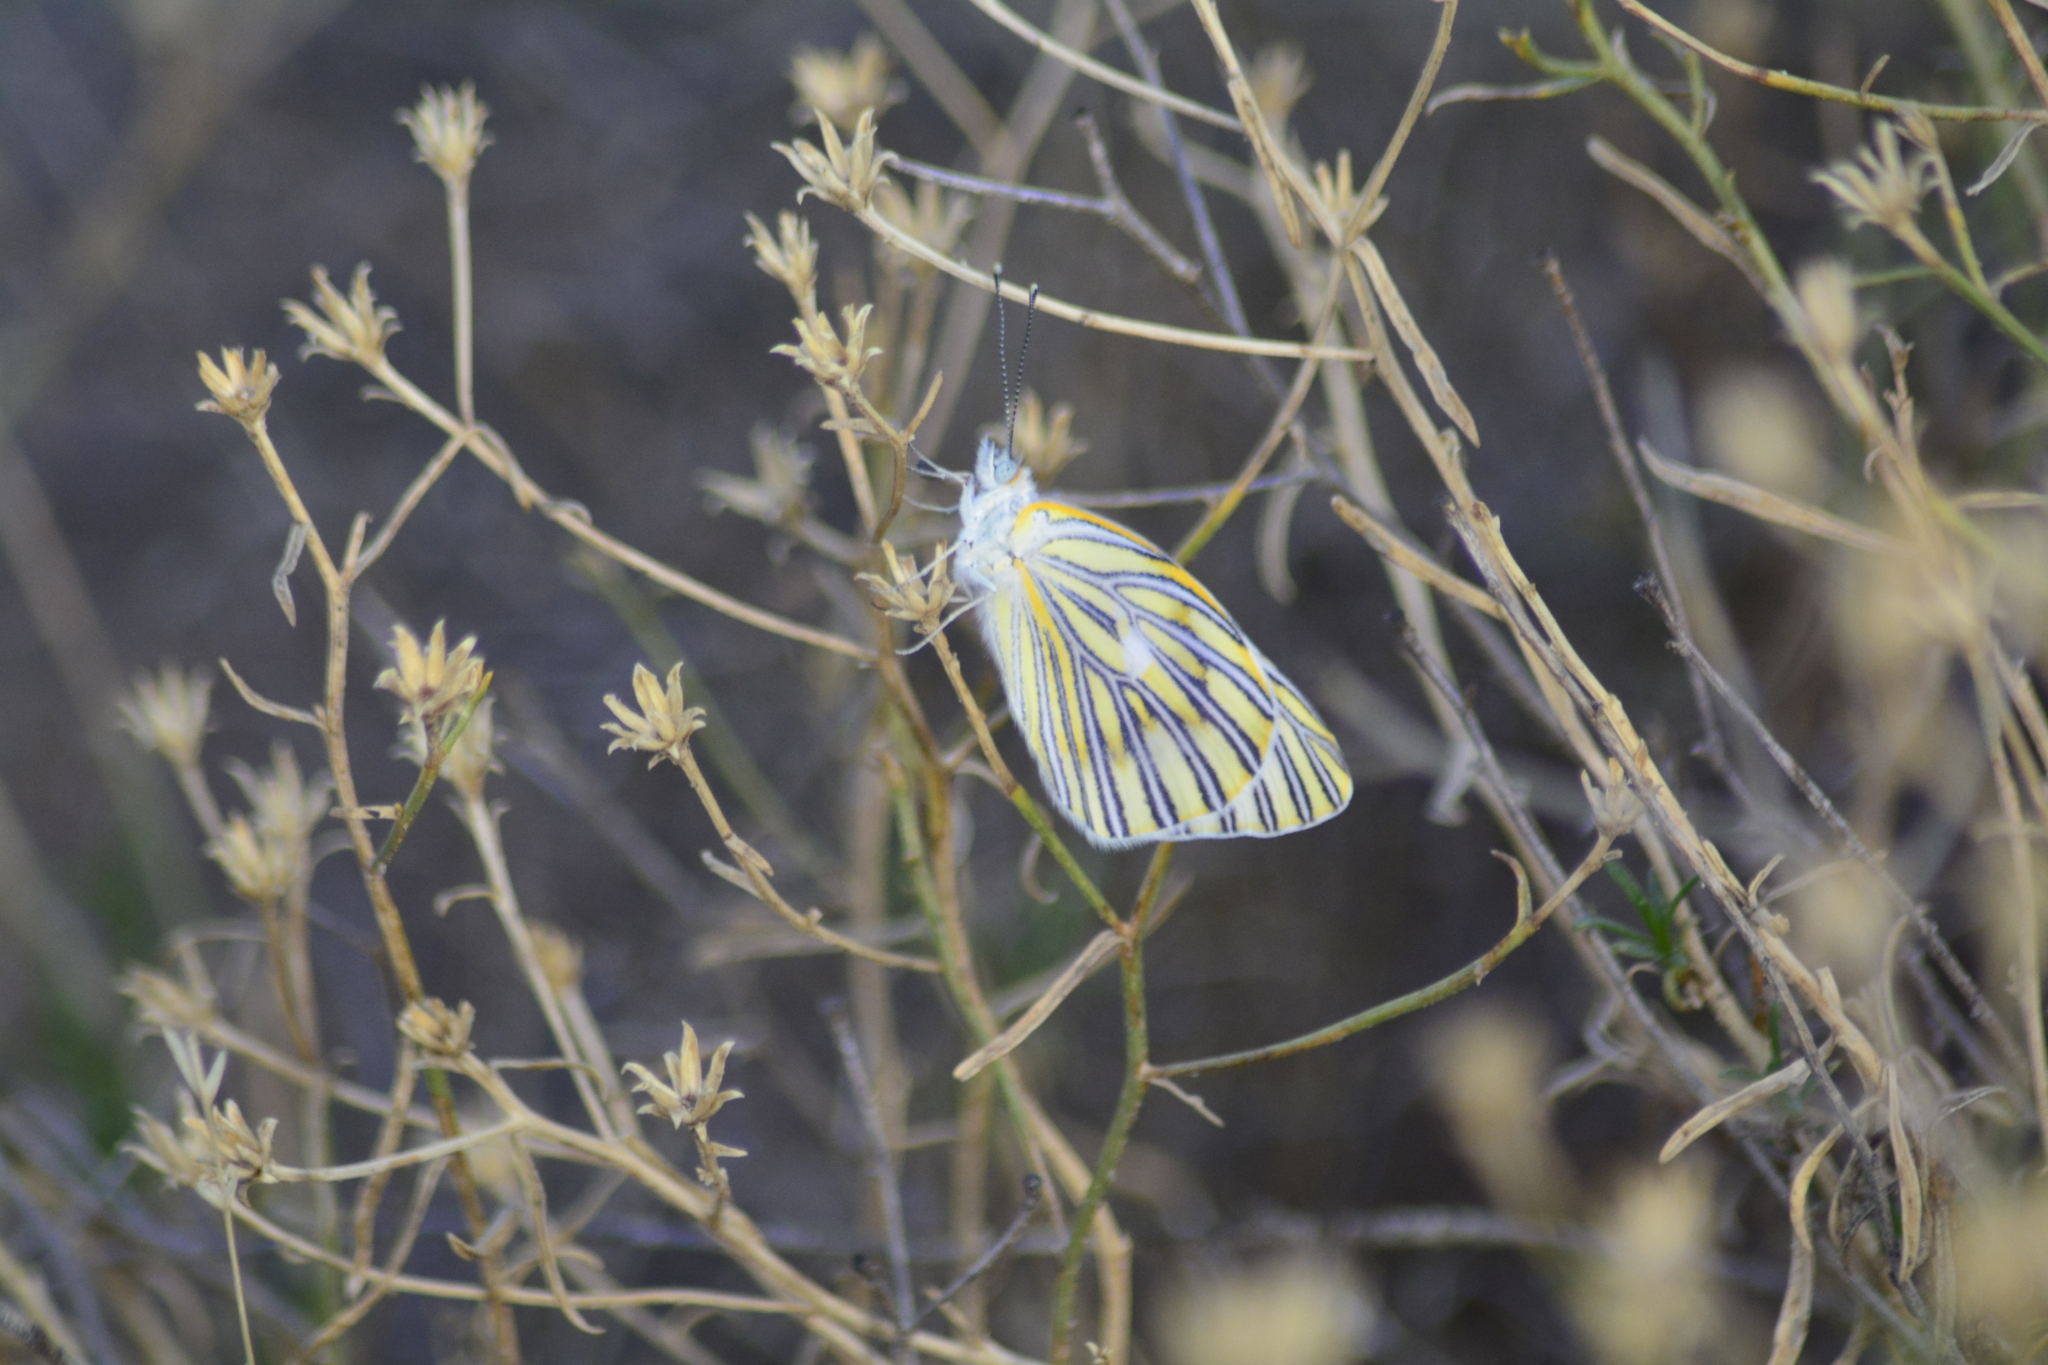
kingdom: Animalia
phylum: Arthropoda
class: Insecta
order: Lepidoptera
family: Pieridae
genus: Tatochila
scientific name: Tatochila mercedis
